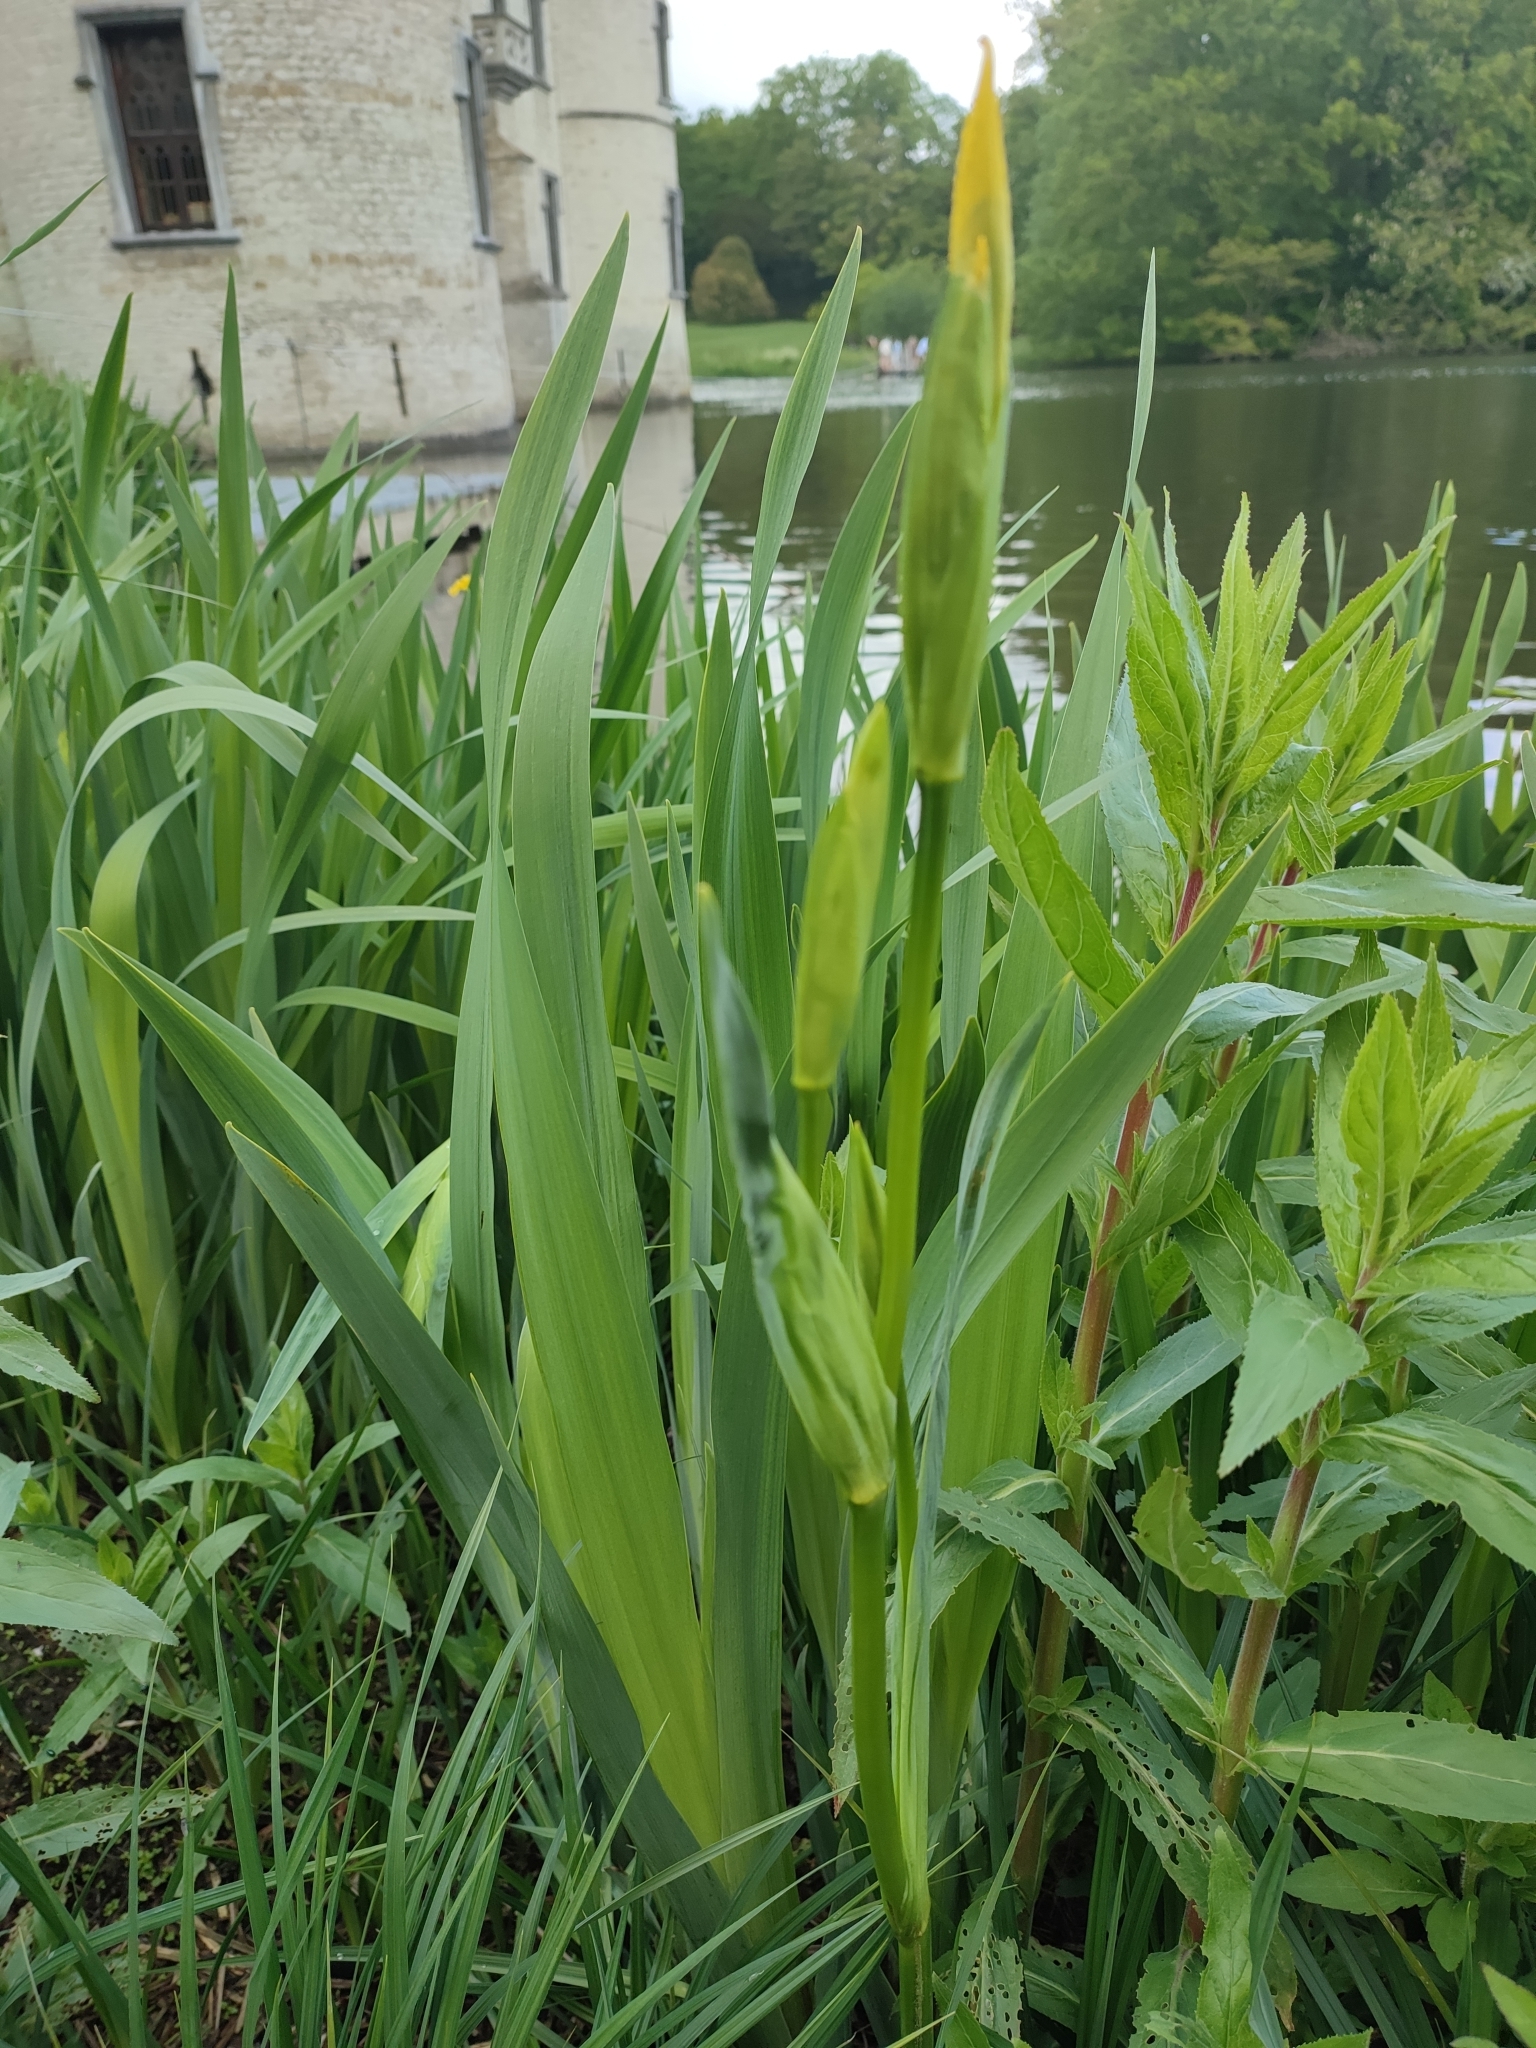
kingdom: Plantae
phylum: Tracheophyta
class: Liliopsida
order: Asparagales
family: Iridaceae
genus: Iris
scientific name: Iris pseudacorus
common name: Yellow flag
